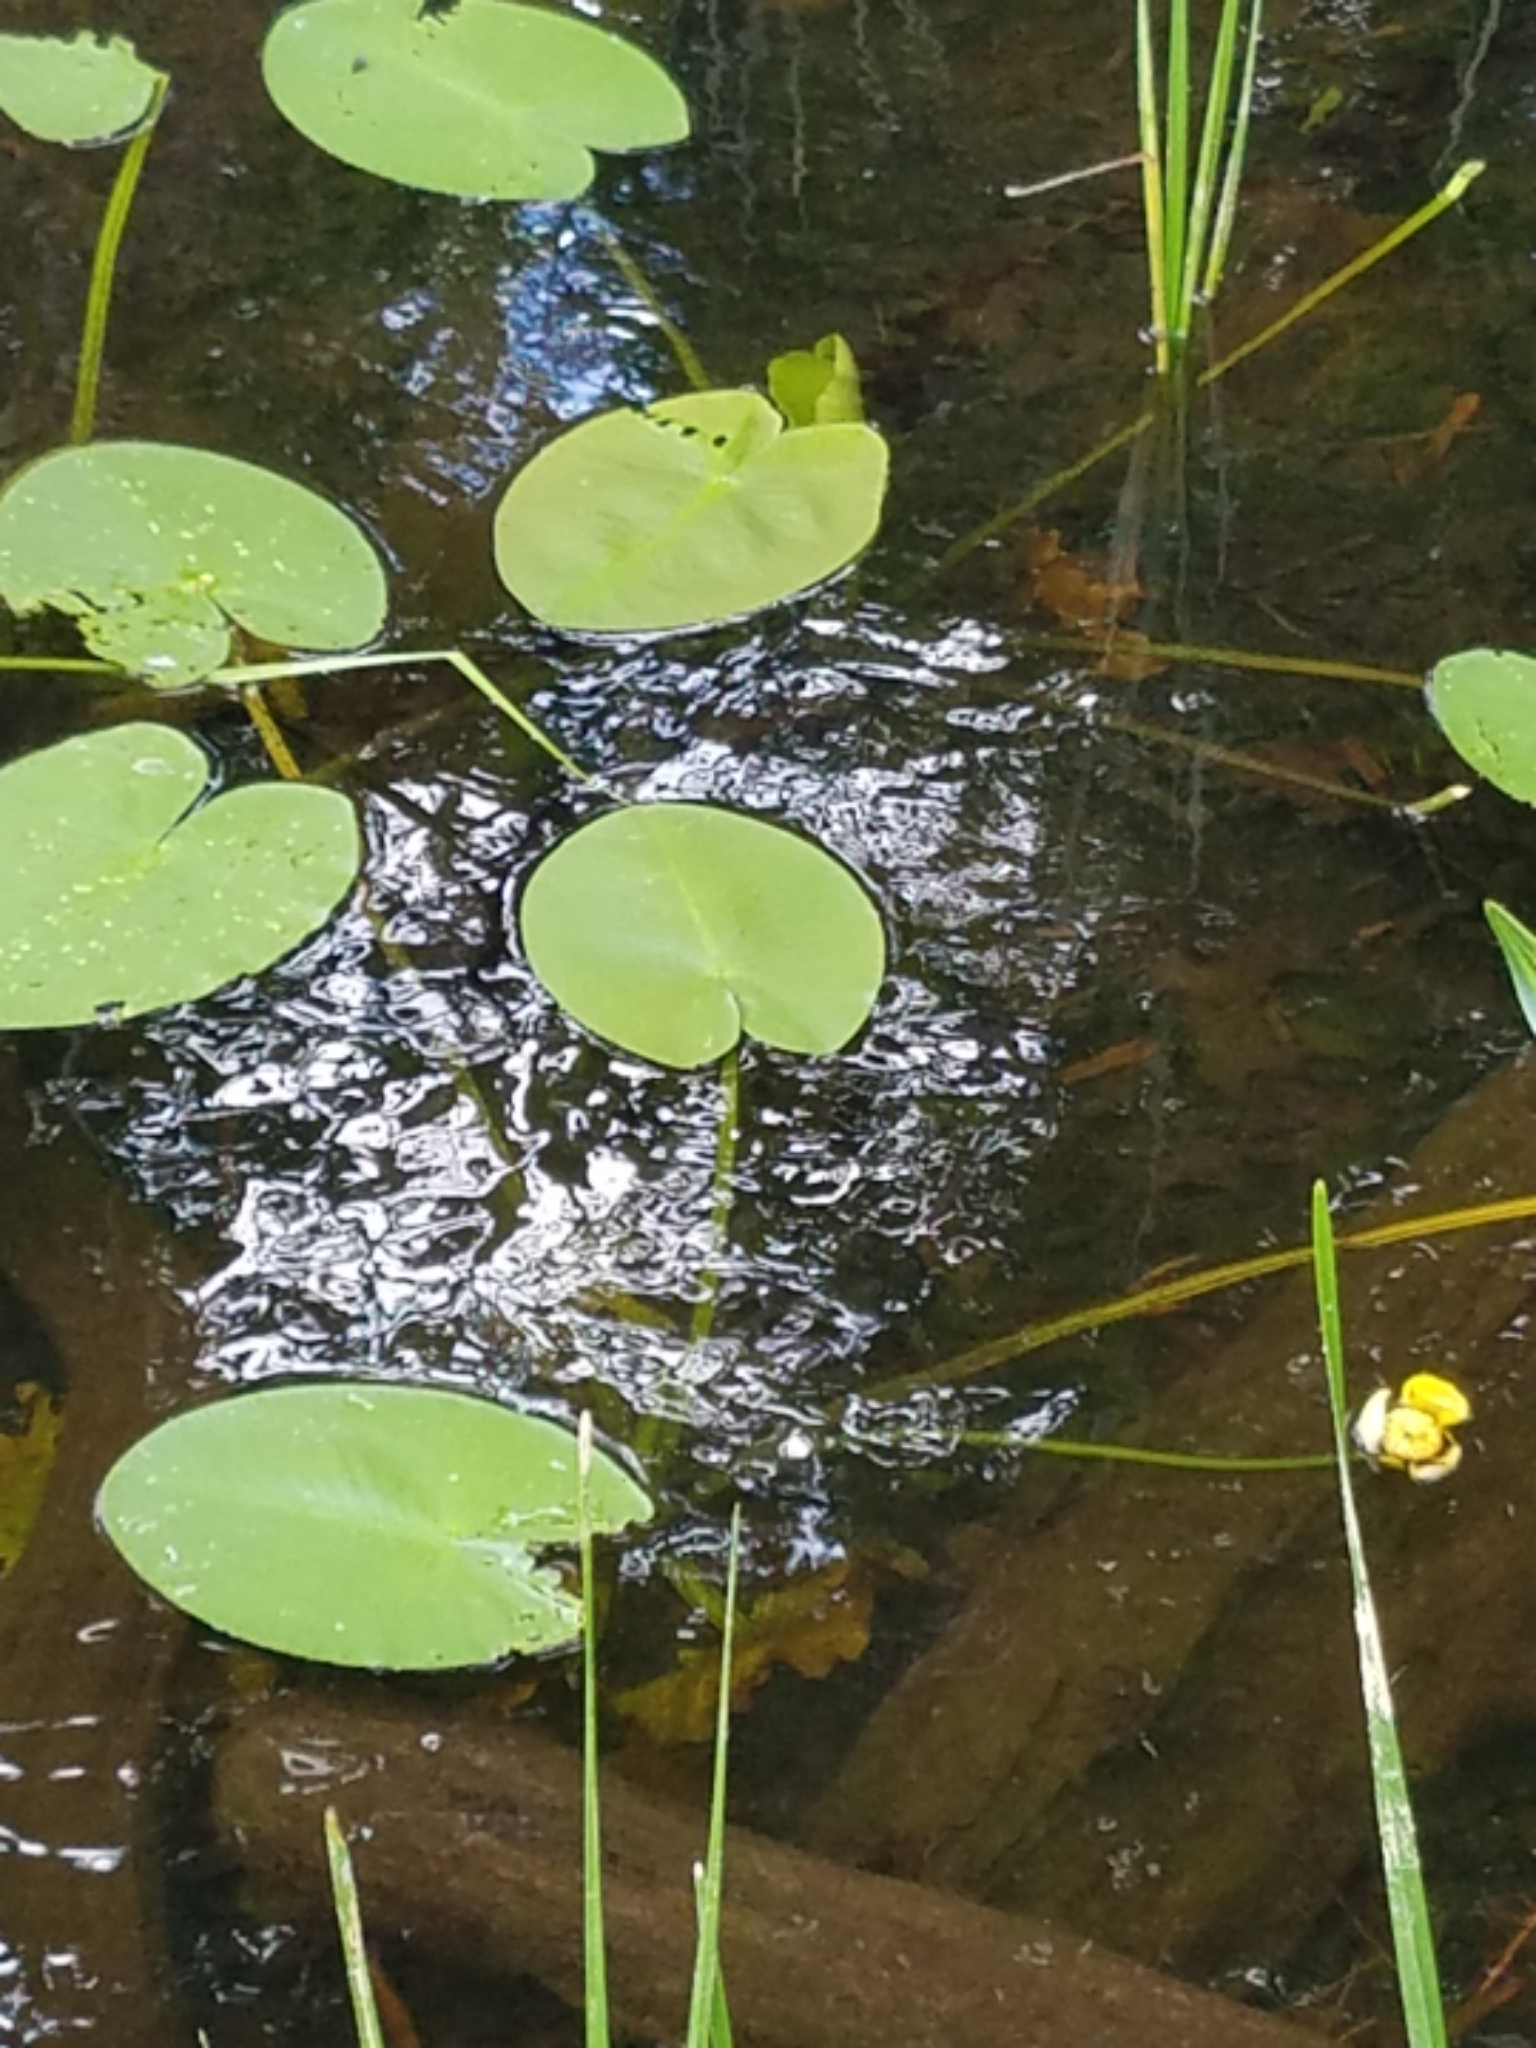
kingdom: Plantae
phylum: Tracheophyta
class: Magnoliopsida
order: Nymphaeales
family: Nymphaeaceae
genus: Nuphar
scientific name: Nuphar variegata
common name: Beaver-root
